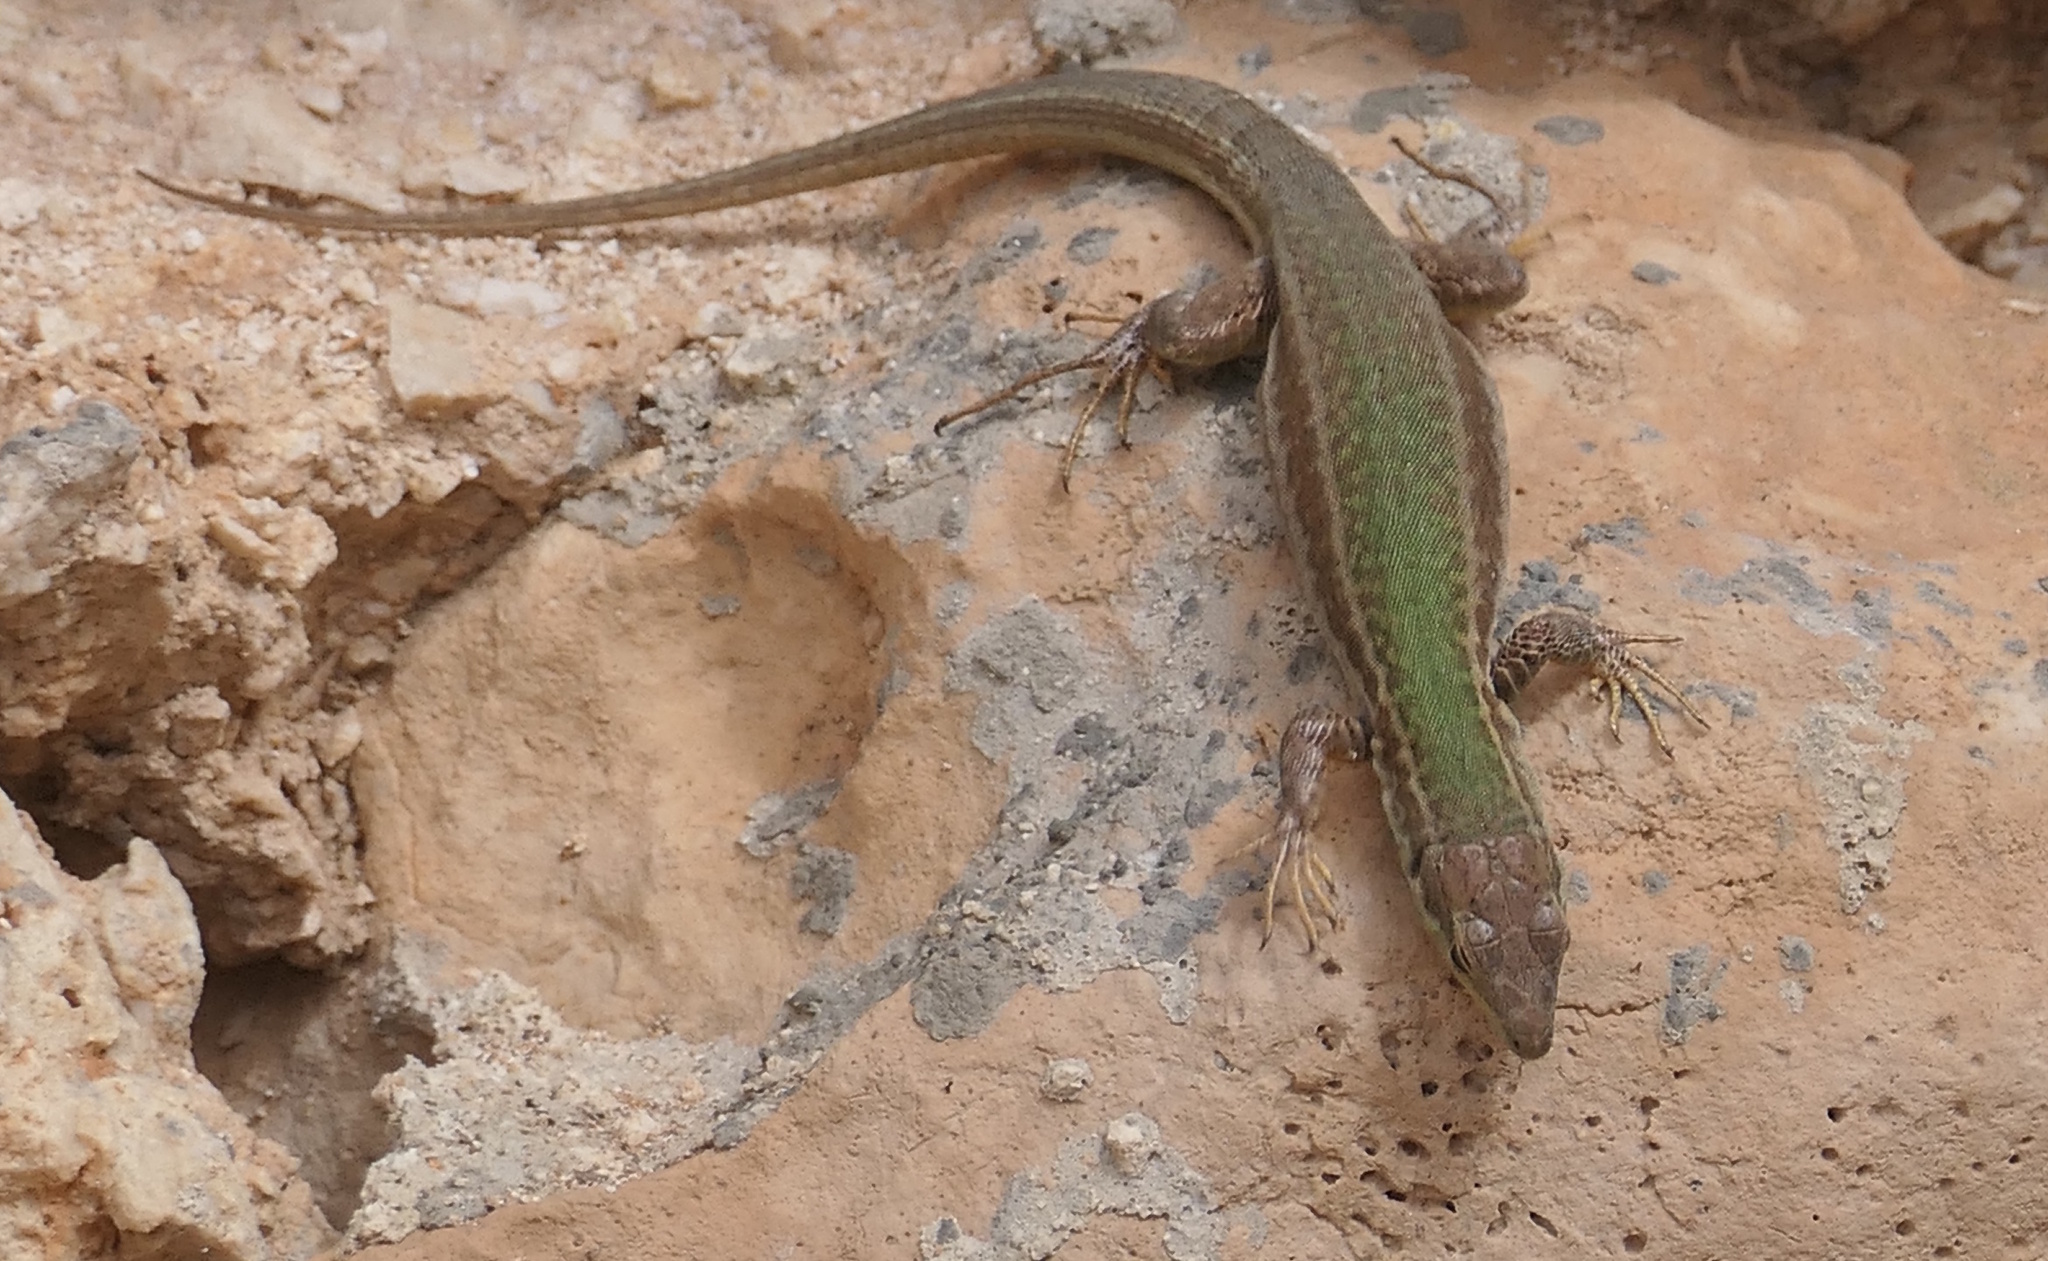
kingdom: Animalia
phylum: Chordata
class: Squamata
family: Lacertidae
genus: Podarcis
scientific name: Podarcis filfolensis
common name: Maltese wall lizard
